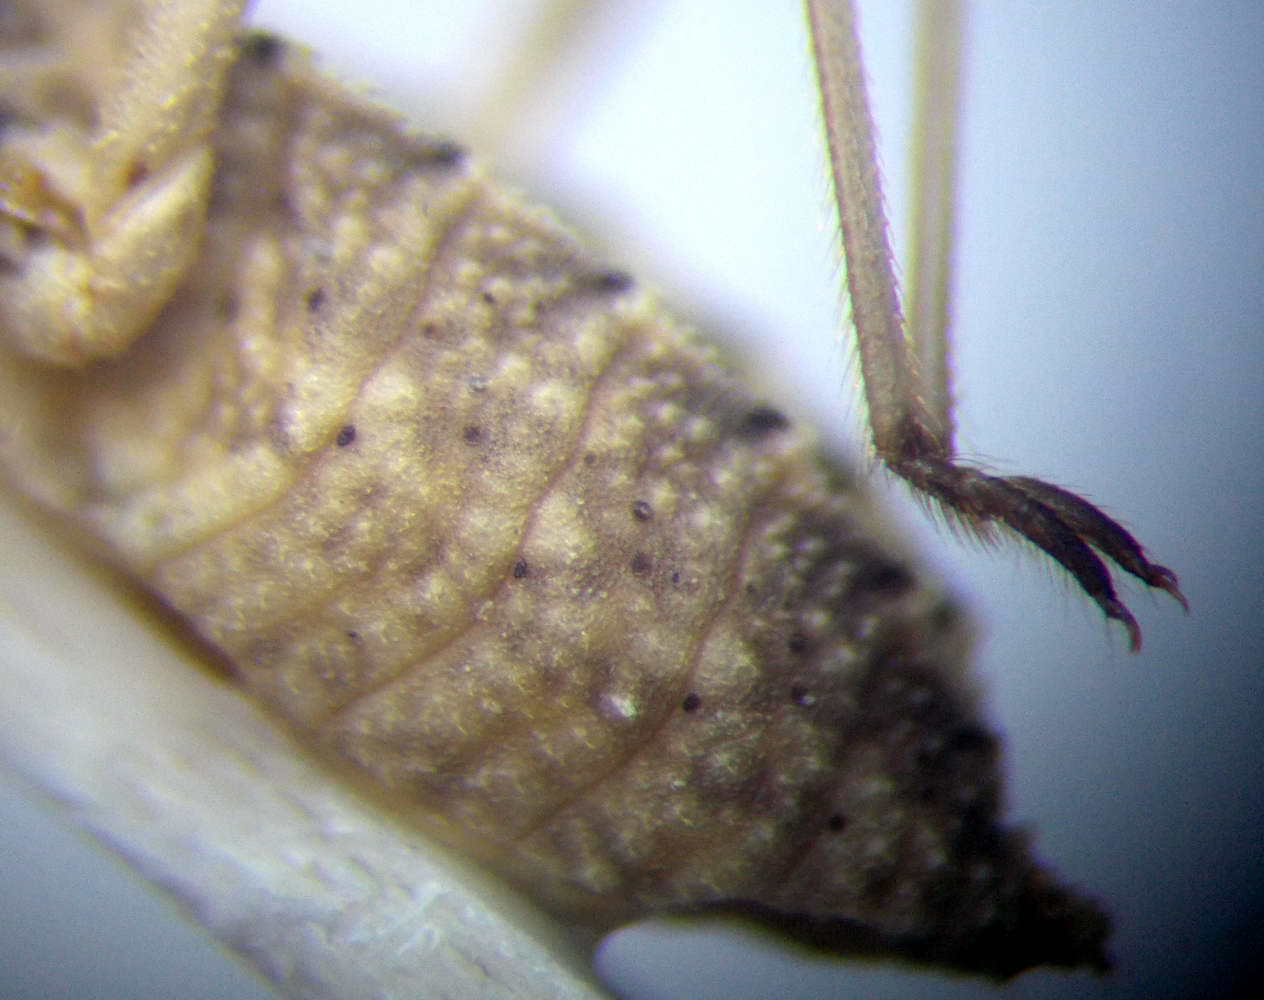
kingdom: Animalia
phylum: Arthropoda
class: Insecta
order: Hemiptera
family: Reduviidae
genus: Oncocephalus
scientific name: Oncocephalus plumicornis
